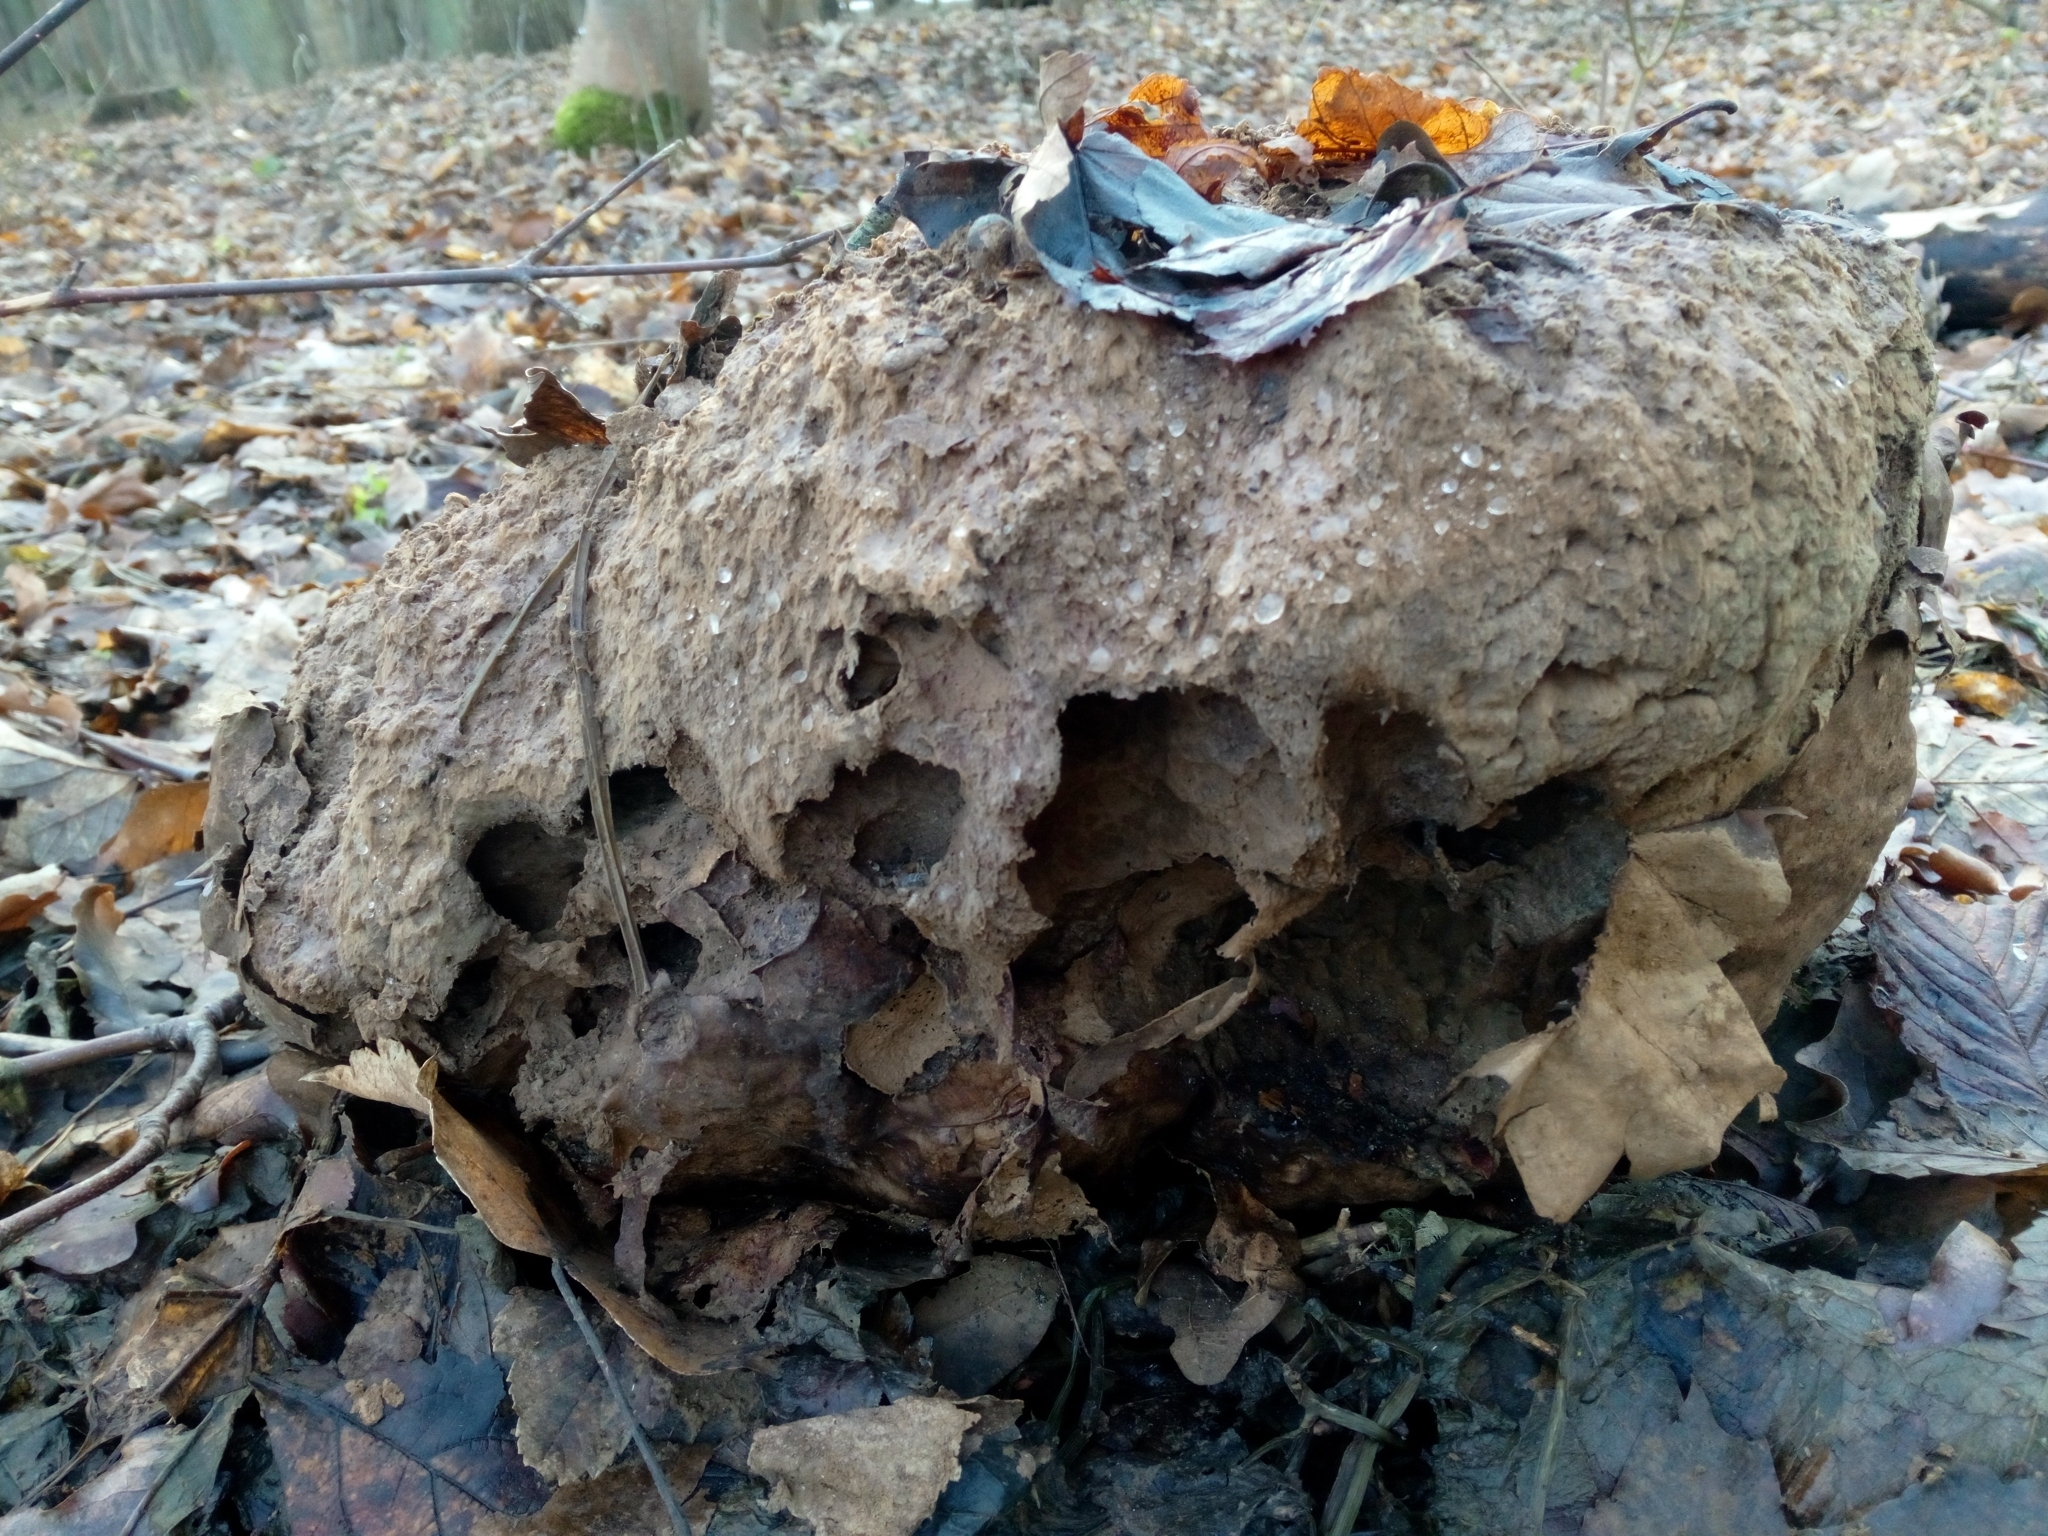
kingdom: Fungi
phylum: Basidiomycota
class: Agaricomycetes
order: Agaricales
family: Lycoperdaceae
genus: Calvatia
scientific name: Calvatia gigantea
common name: Giant puffball
